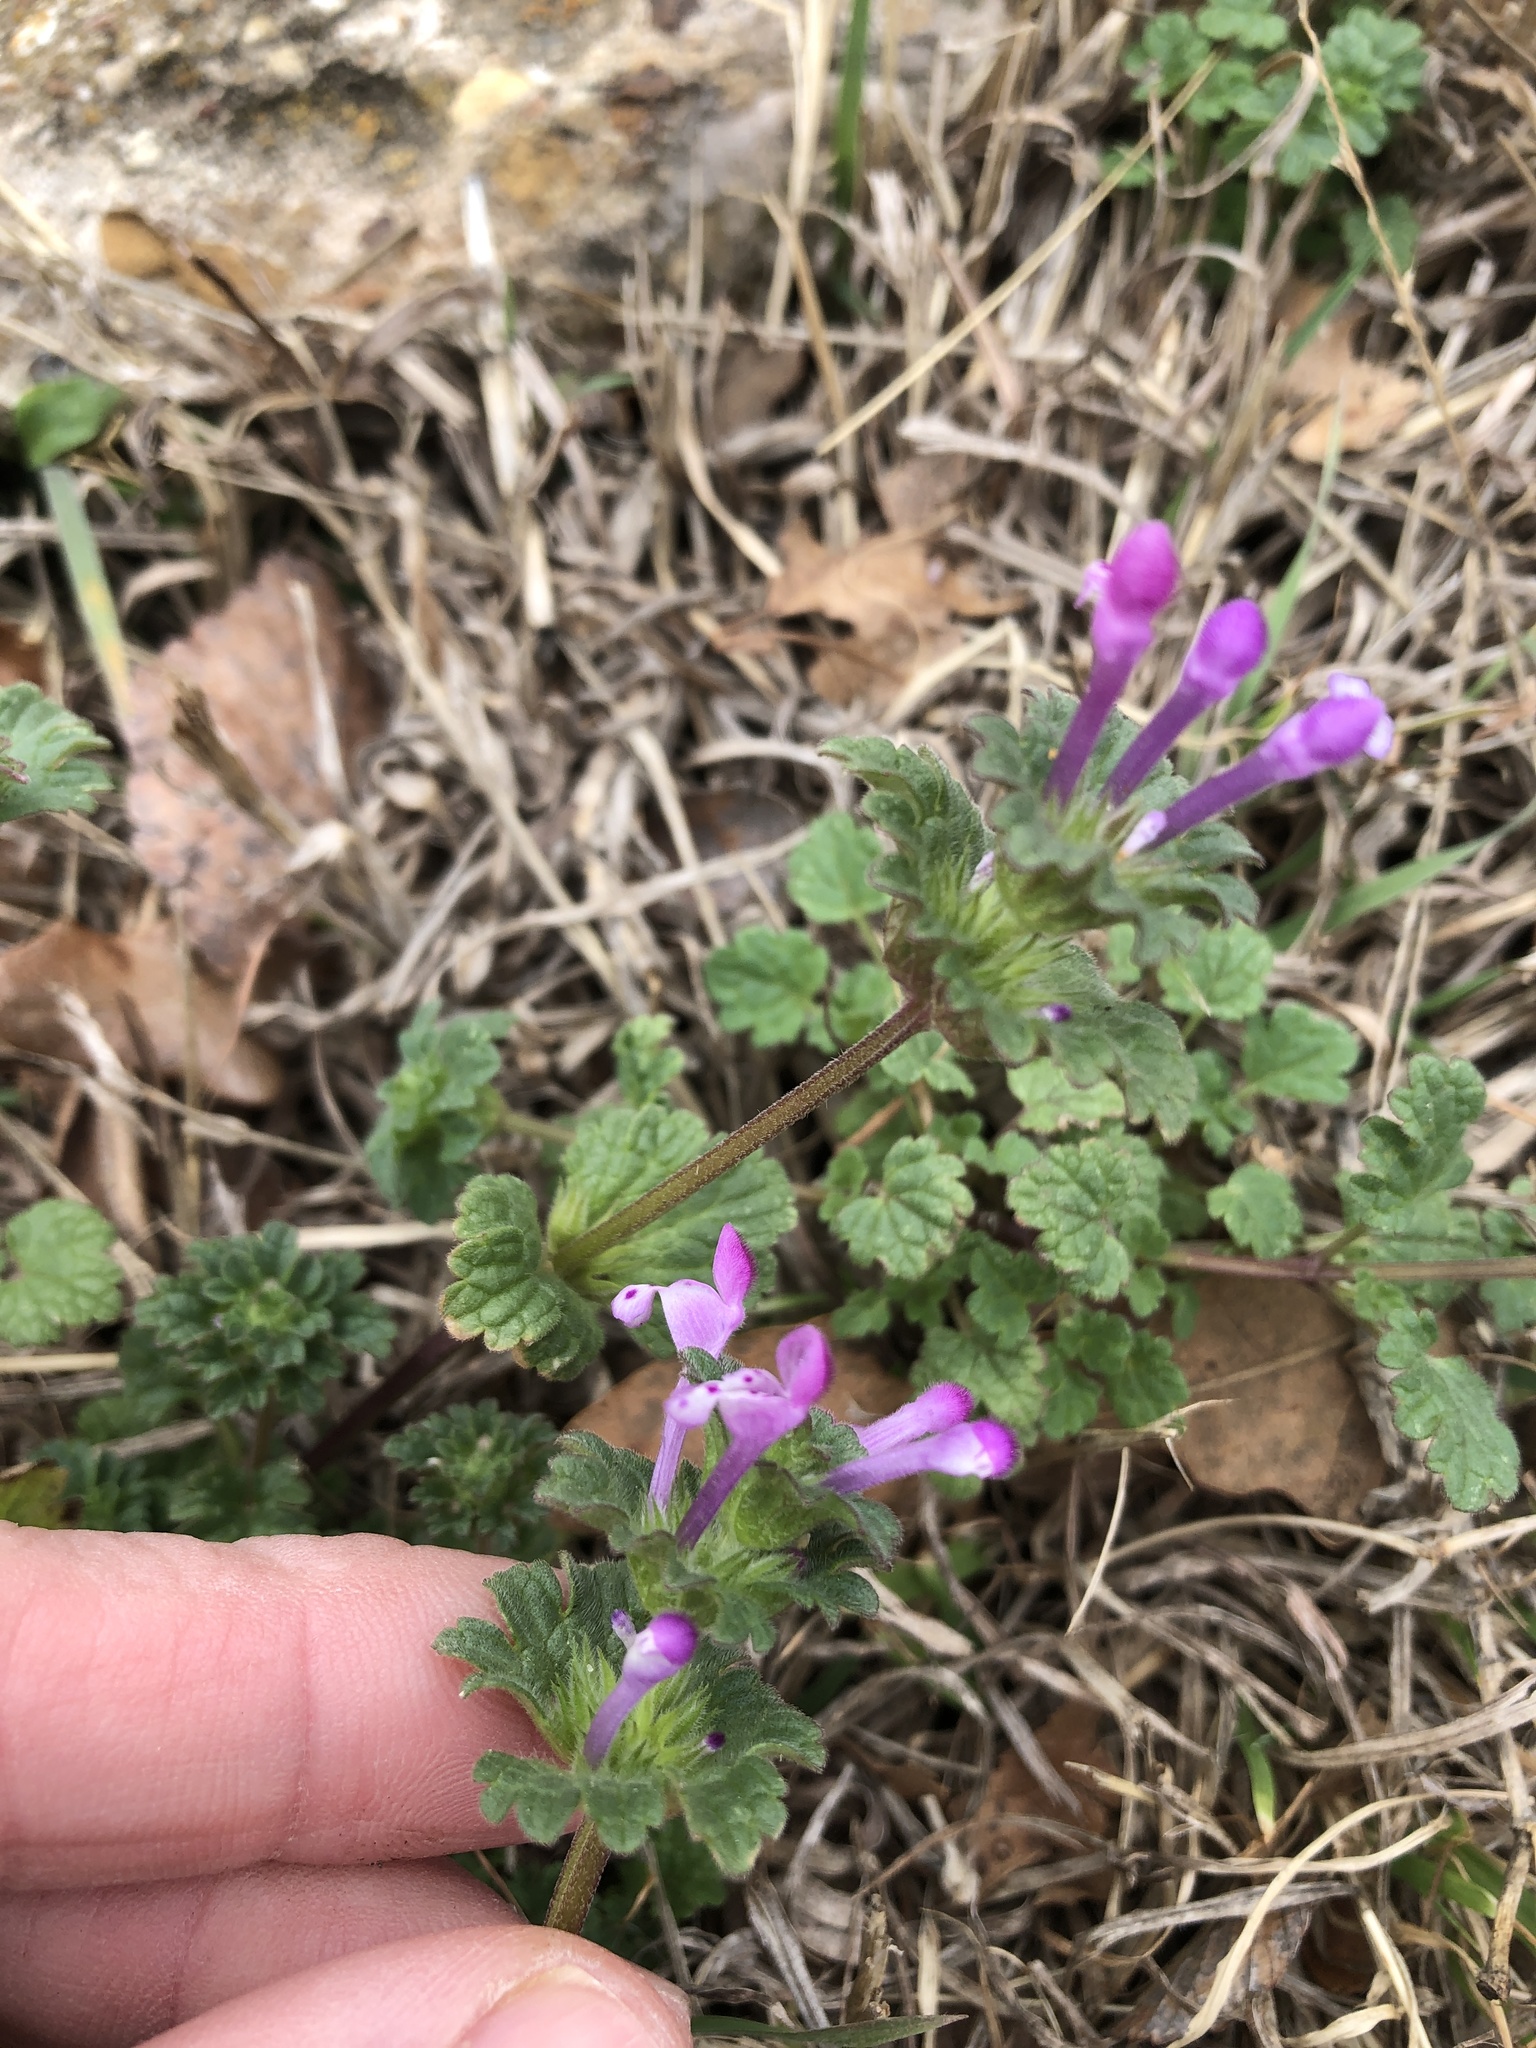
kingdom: Plantae
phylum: Tracheophyta
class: Magnoliopsida
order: Lamiales
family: Lamiaceae
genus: Lamium
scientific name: Lamium amplexicaule
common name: Henbit dead-nettle
